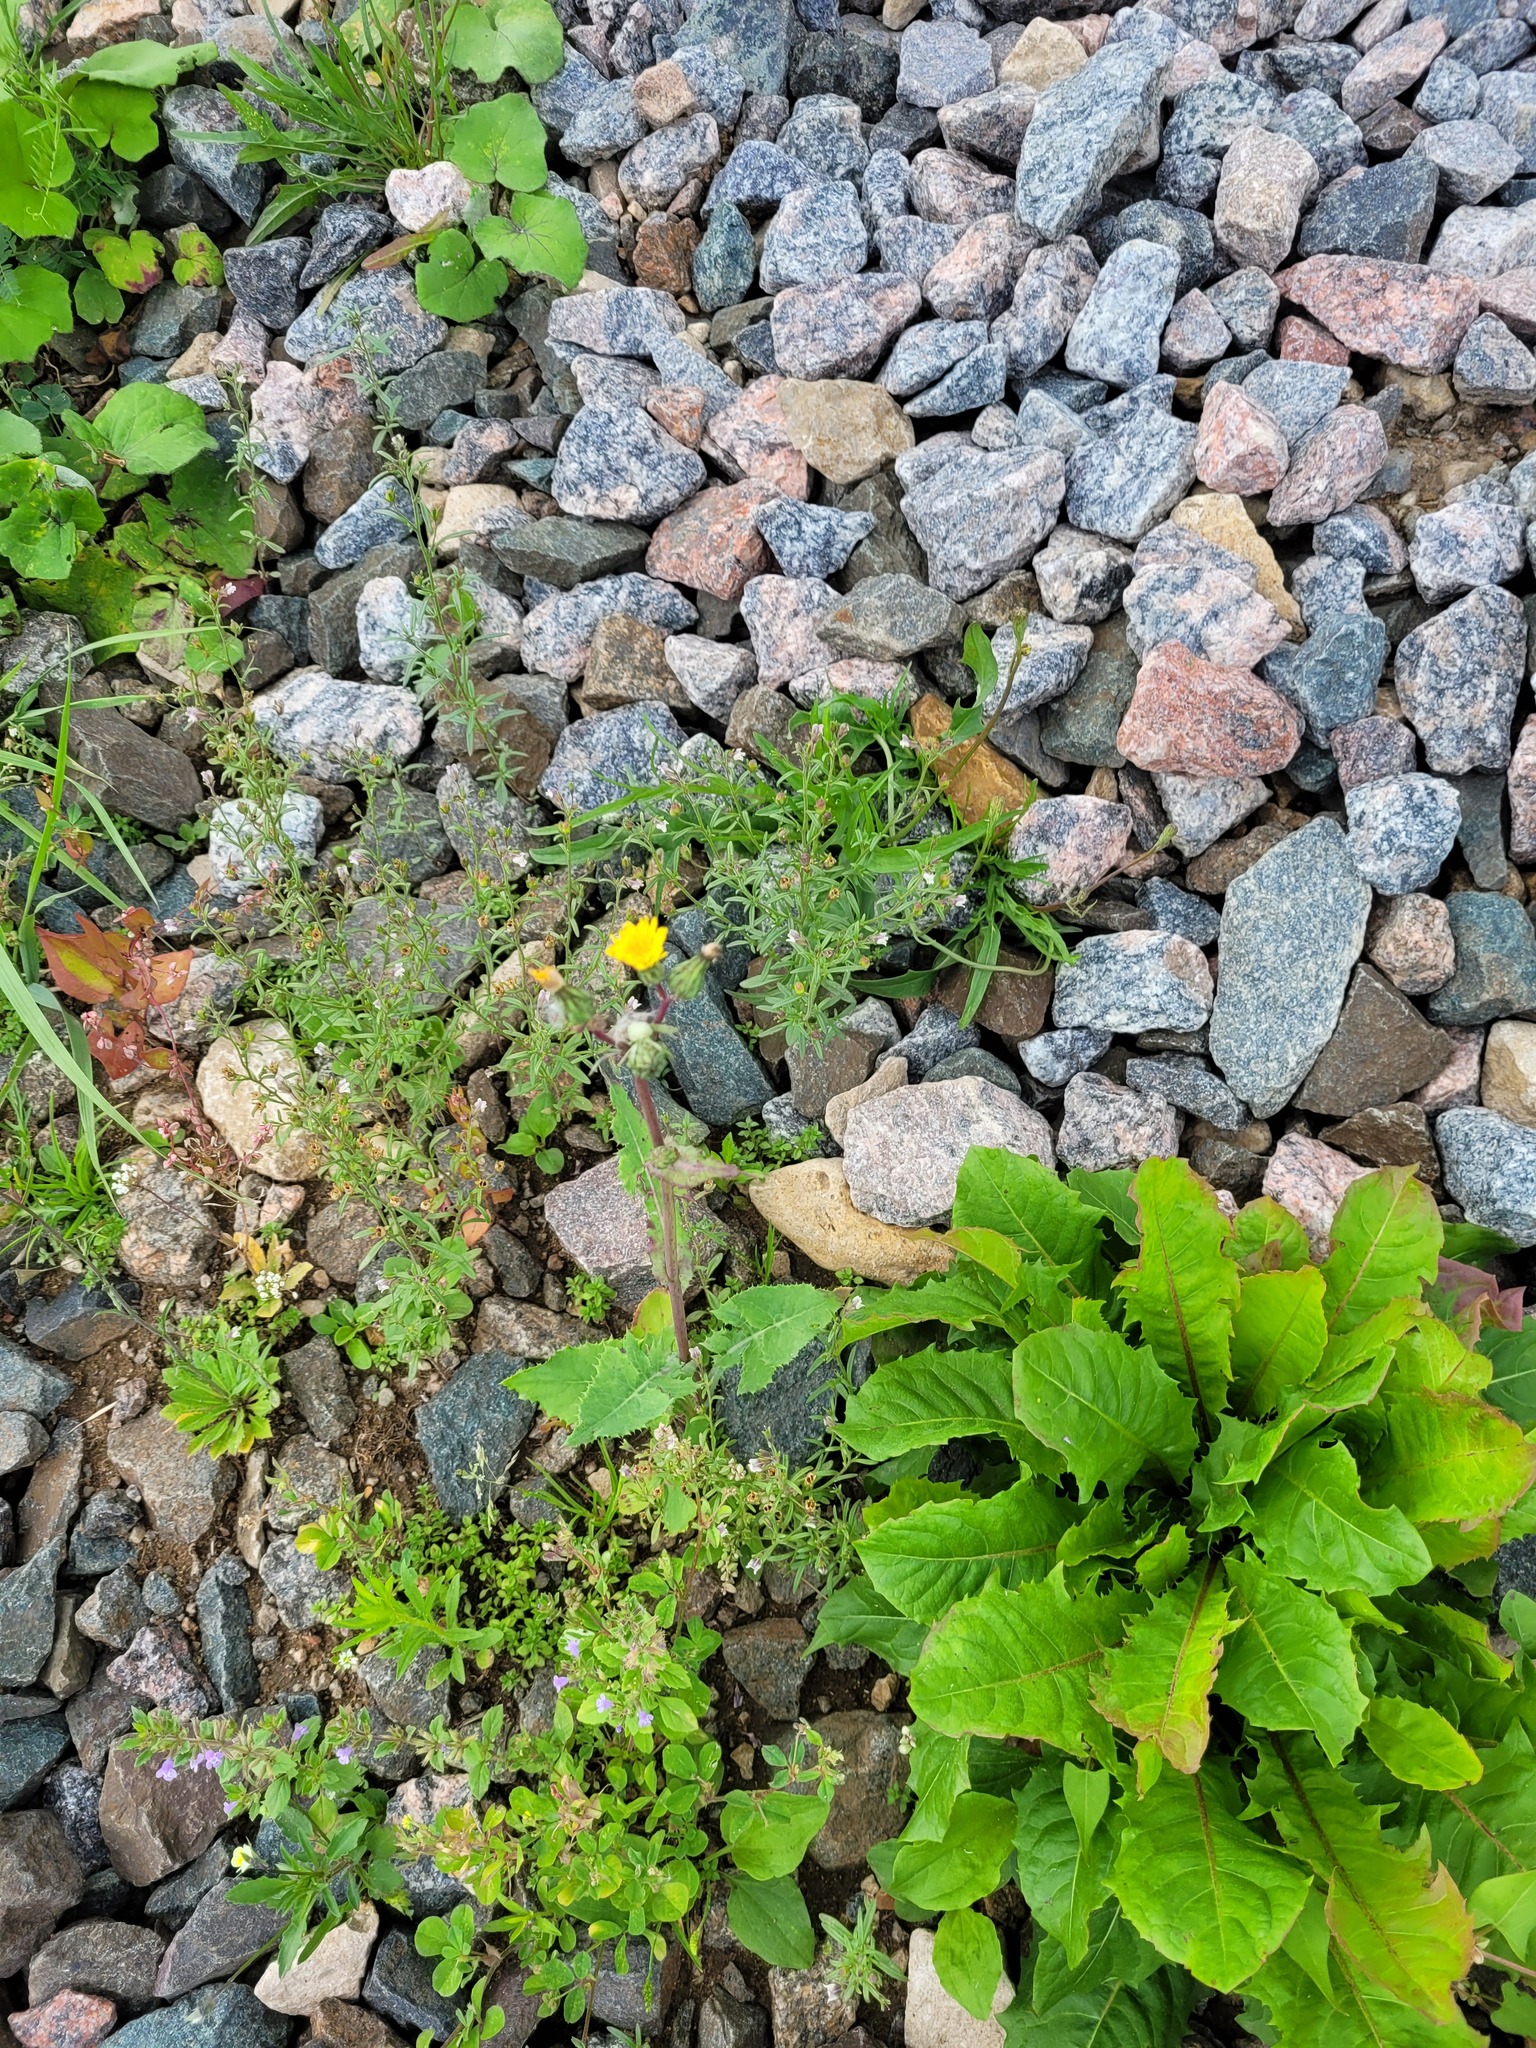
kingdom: Plantae
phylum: Tracheophyta
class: Magnoliopsida
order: Asterales
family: Asteraceae
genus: Sonchus
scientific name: Sonchus oleraceus
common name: Common sowthistle
